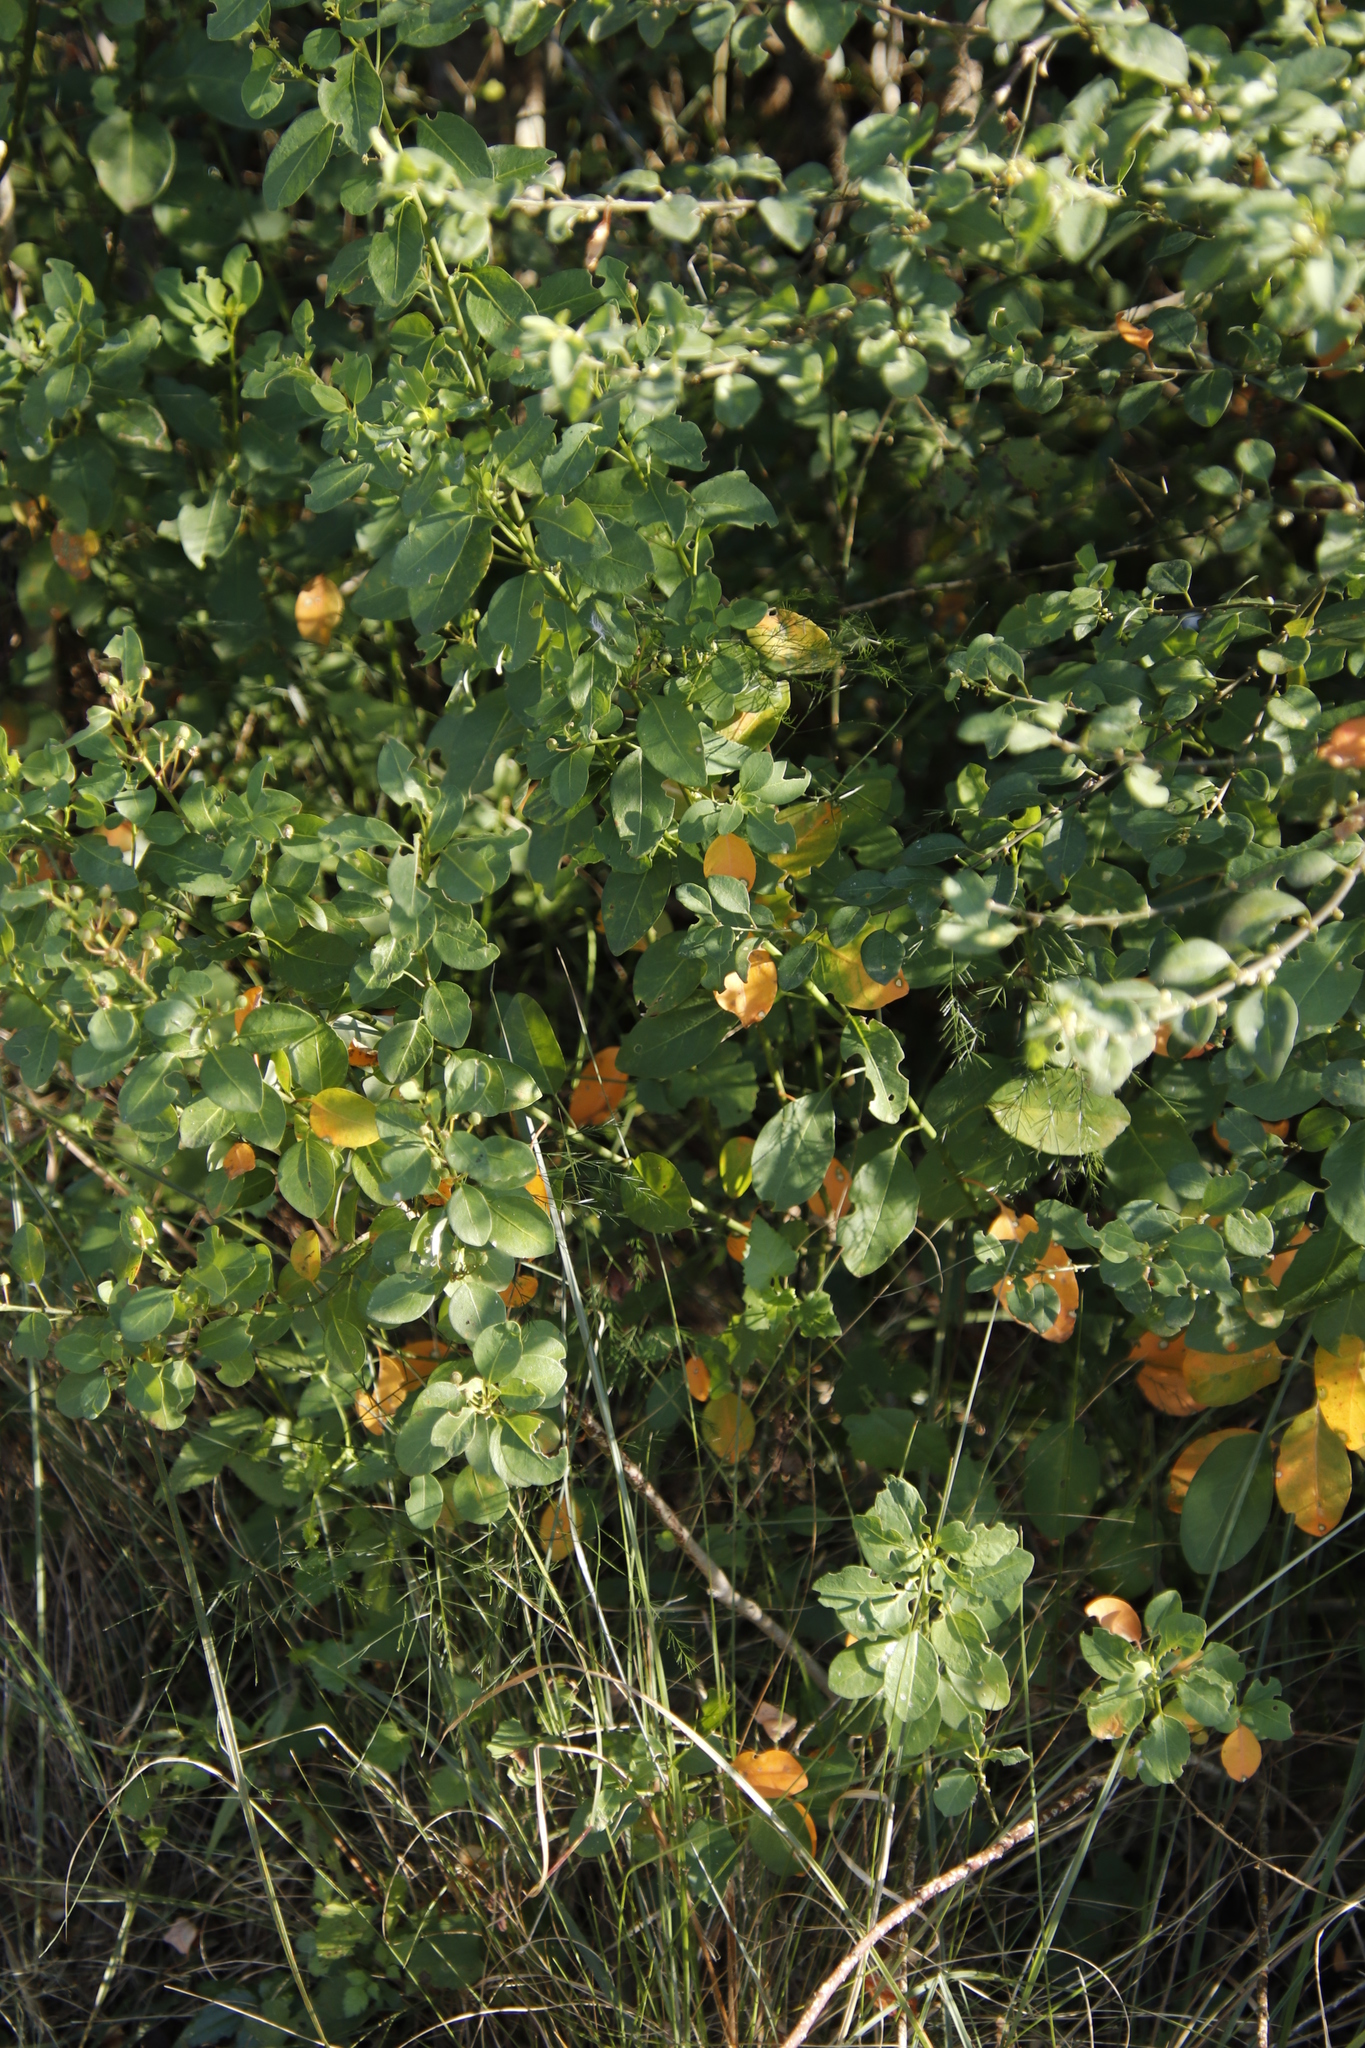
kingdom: Plantae
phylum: Tracheophyta
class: Magnoliopsida
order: Malpighiales
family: Peraceae
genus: Clutia
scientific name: Clutia pulchella
